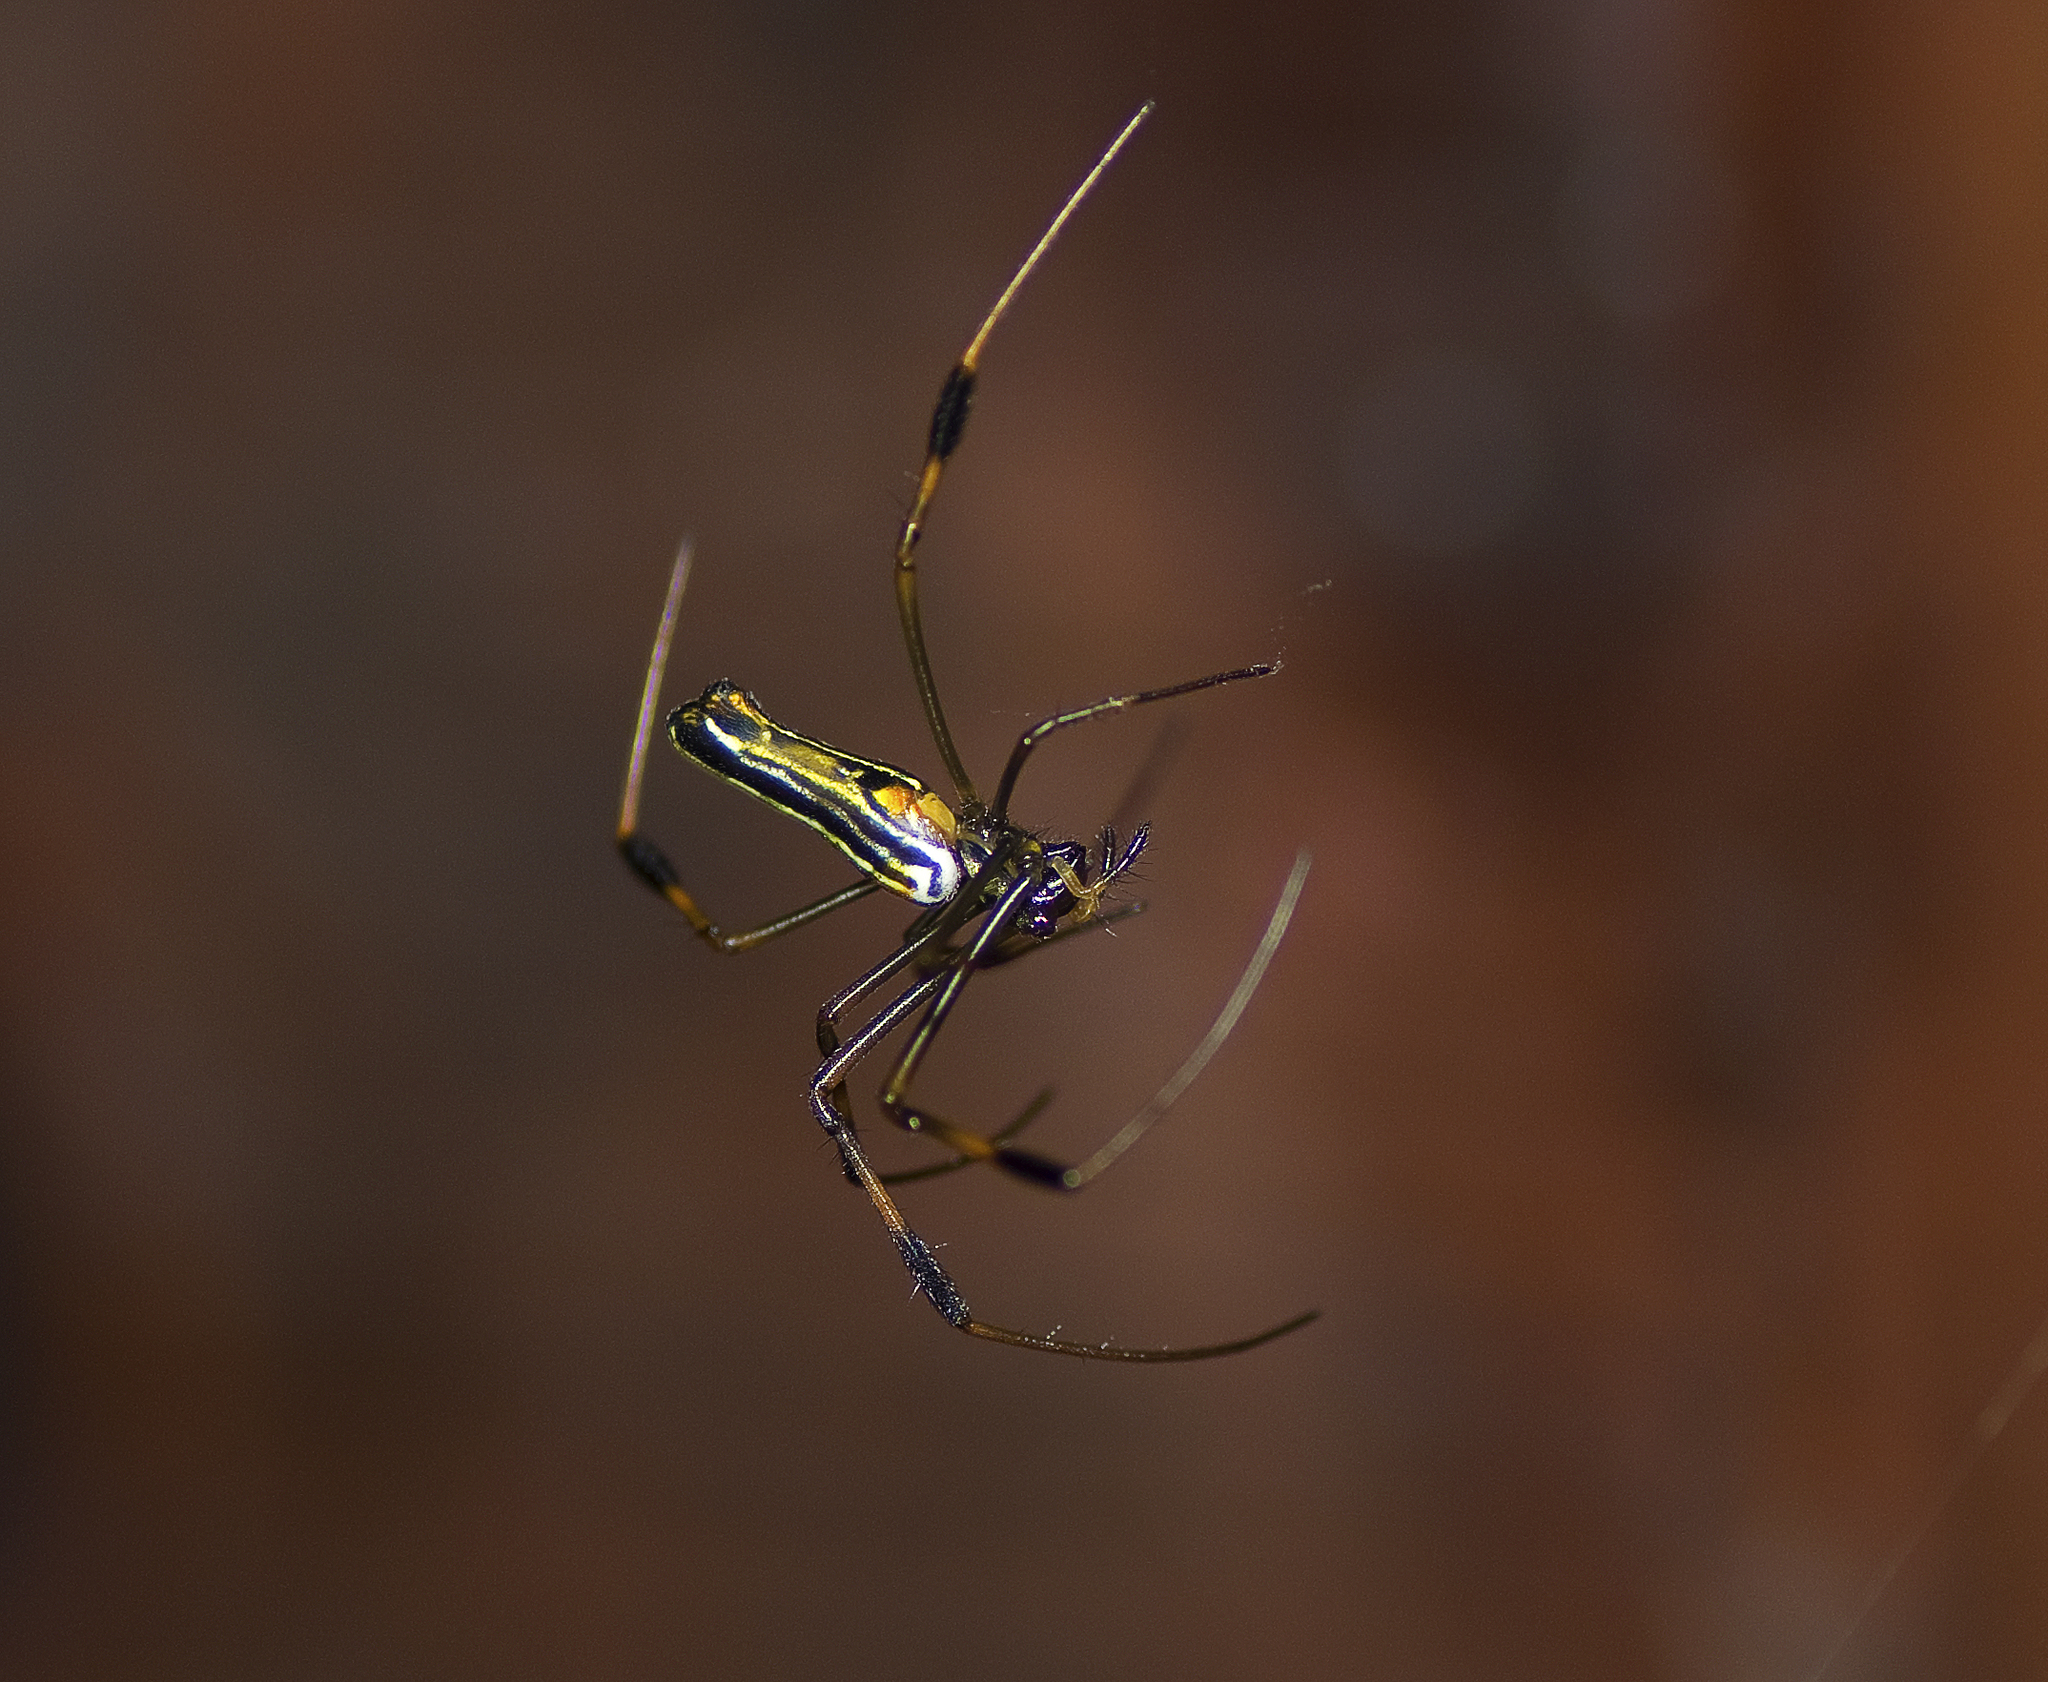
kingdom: Animalia
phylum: Arthropoda
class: Arachnida
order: Araneae
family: Araneidae
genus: Nephila
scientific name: Nephila pilipes
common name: Giant golden orb weaver
